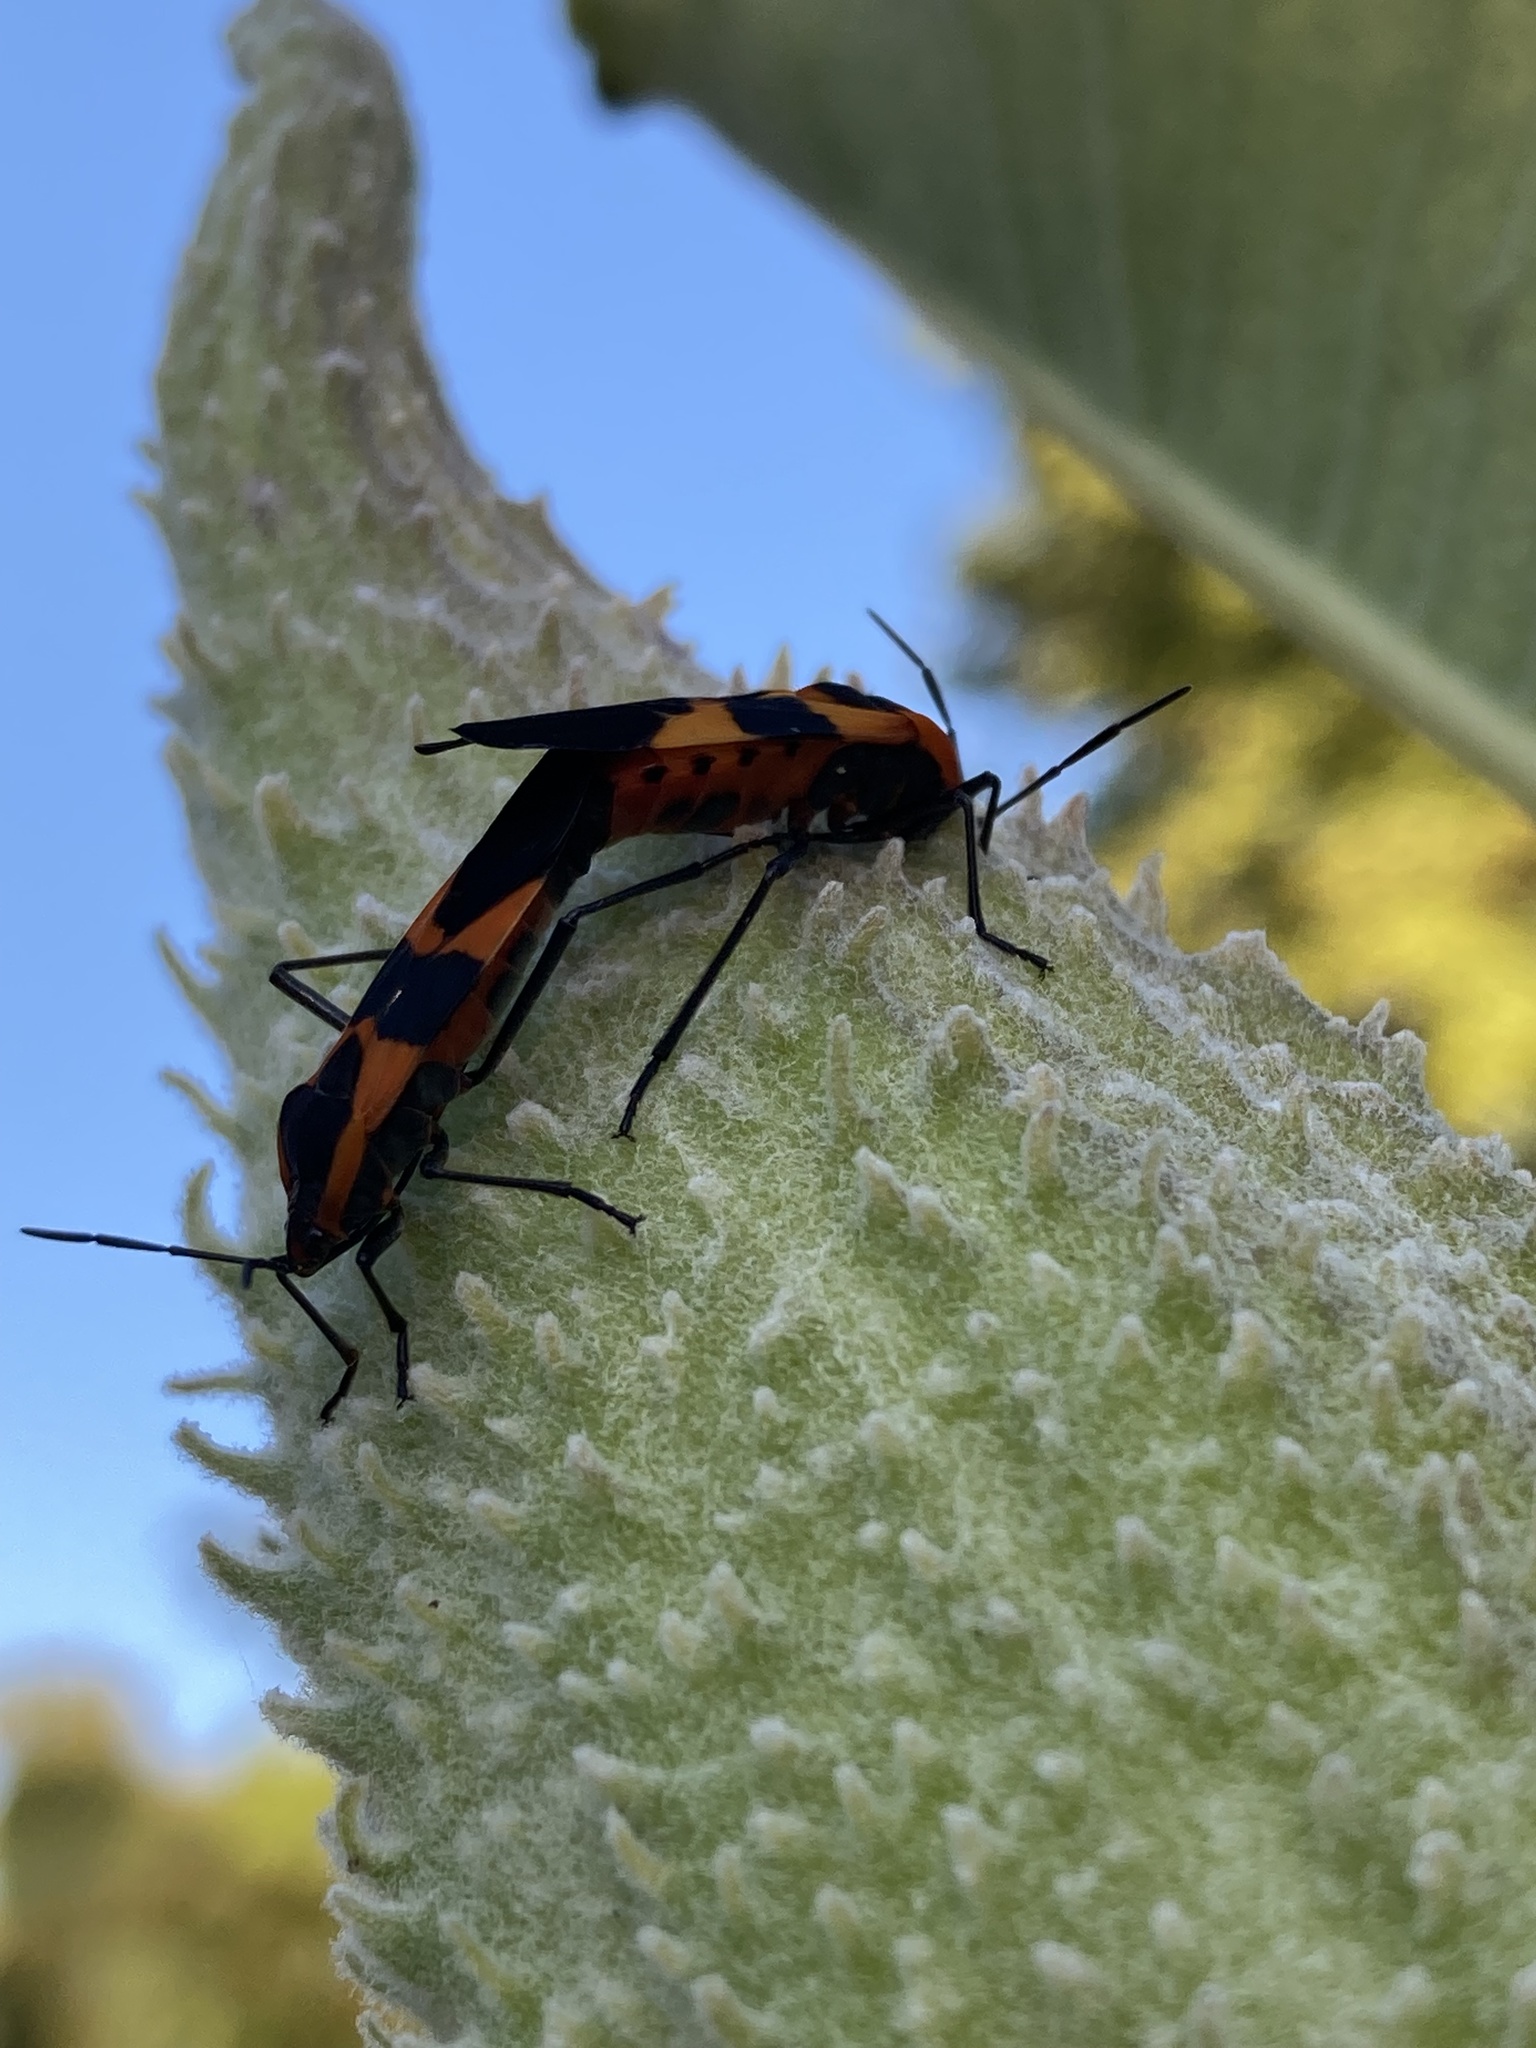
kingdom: Animalia
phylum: Arthropoda
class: Insecta
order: Hemiptera
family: Lygaeidae
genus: Oncopeltus
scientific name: Oncopeltus fasciatus
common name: Large milkweed bug
